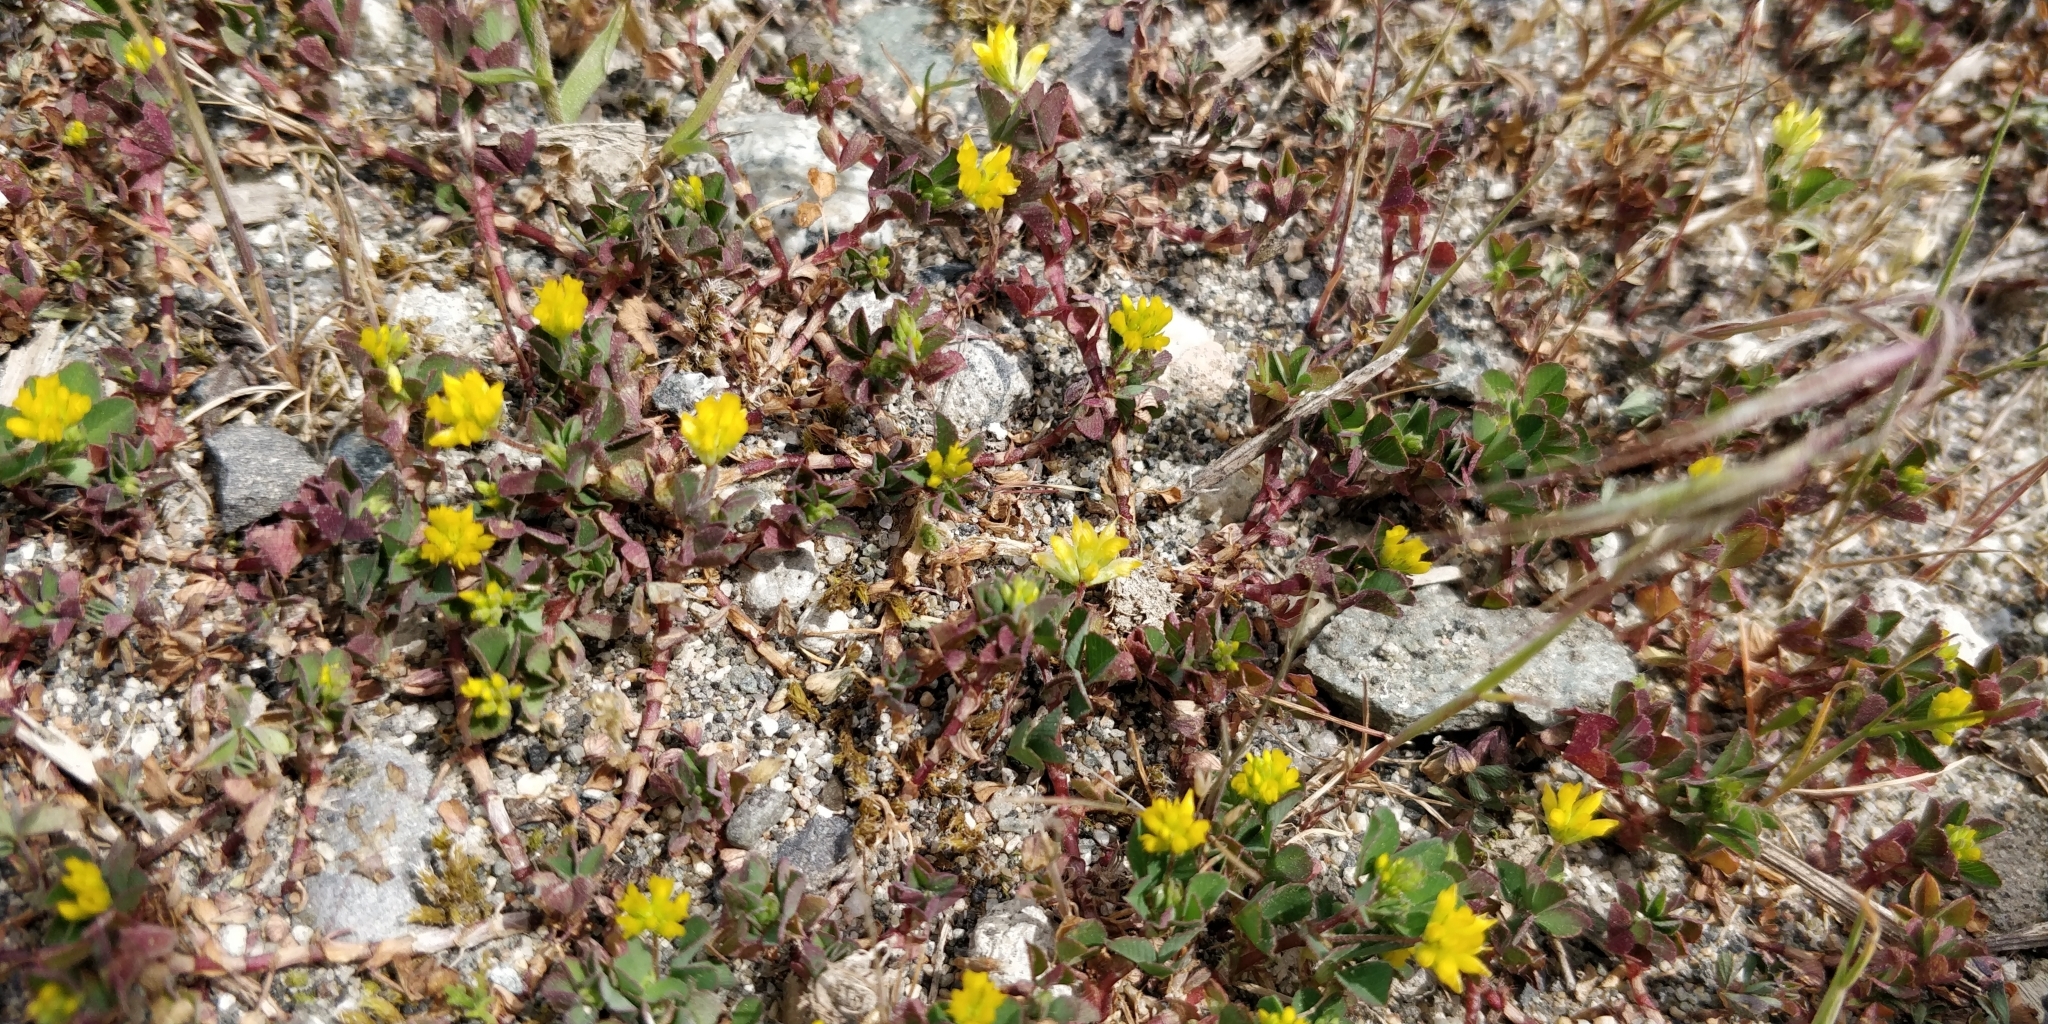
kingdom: Plantae
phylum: Tracheophyta
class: Magnoliopsida
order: Fabales
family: Fabaceae
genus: Trifolium
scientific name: Trifolium dubium
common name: Suckling clover
